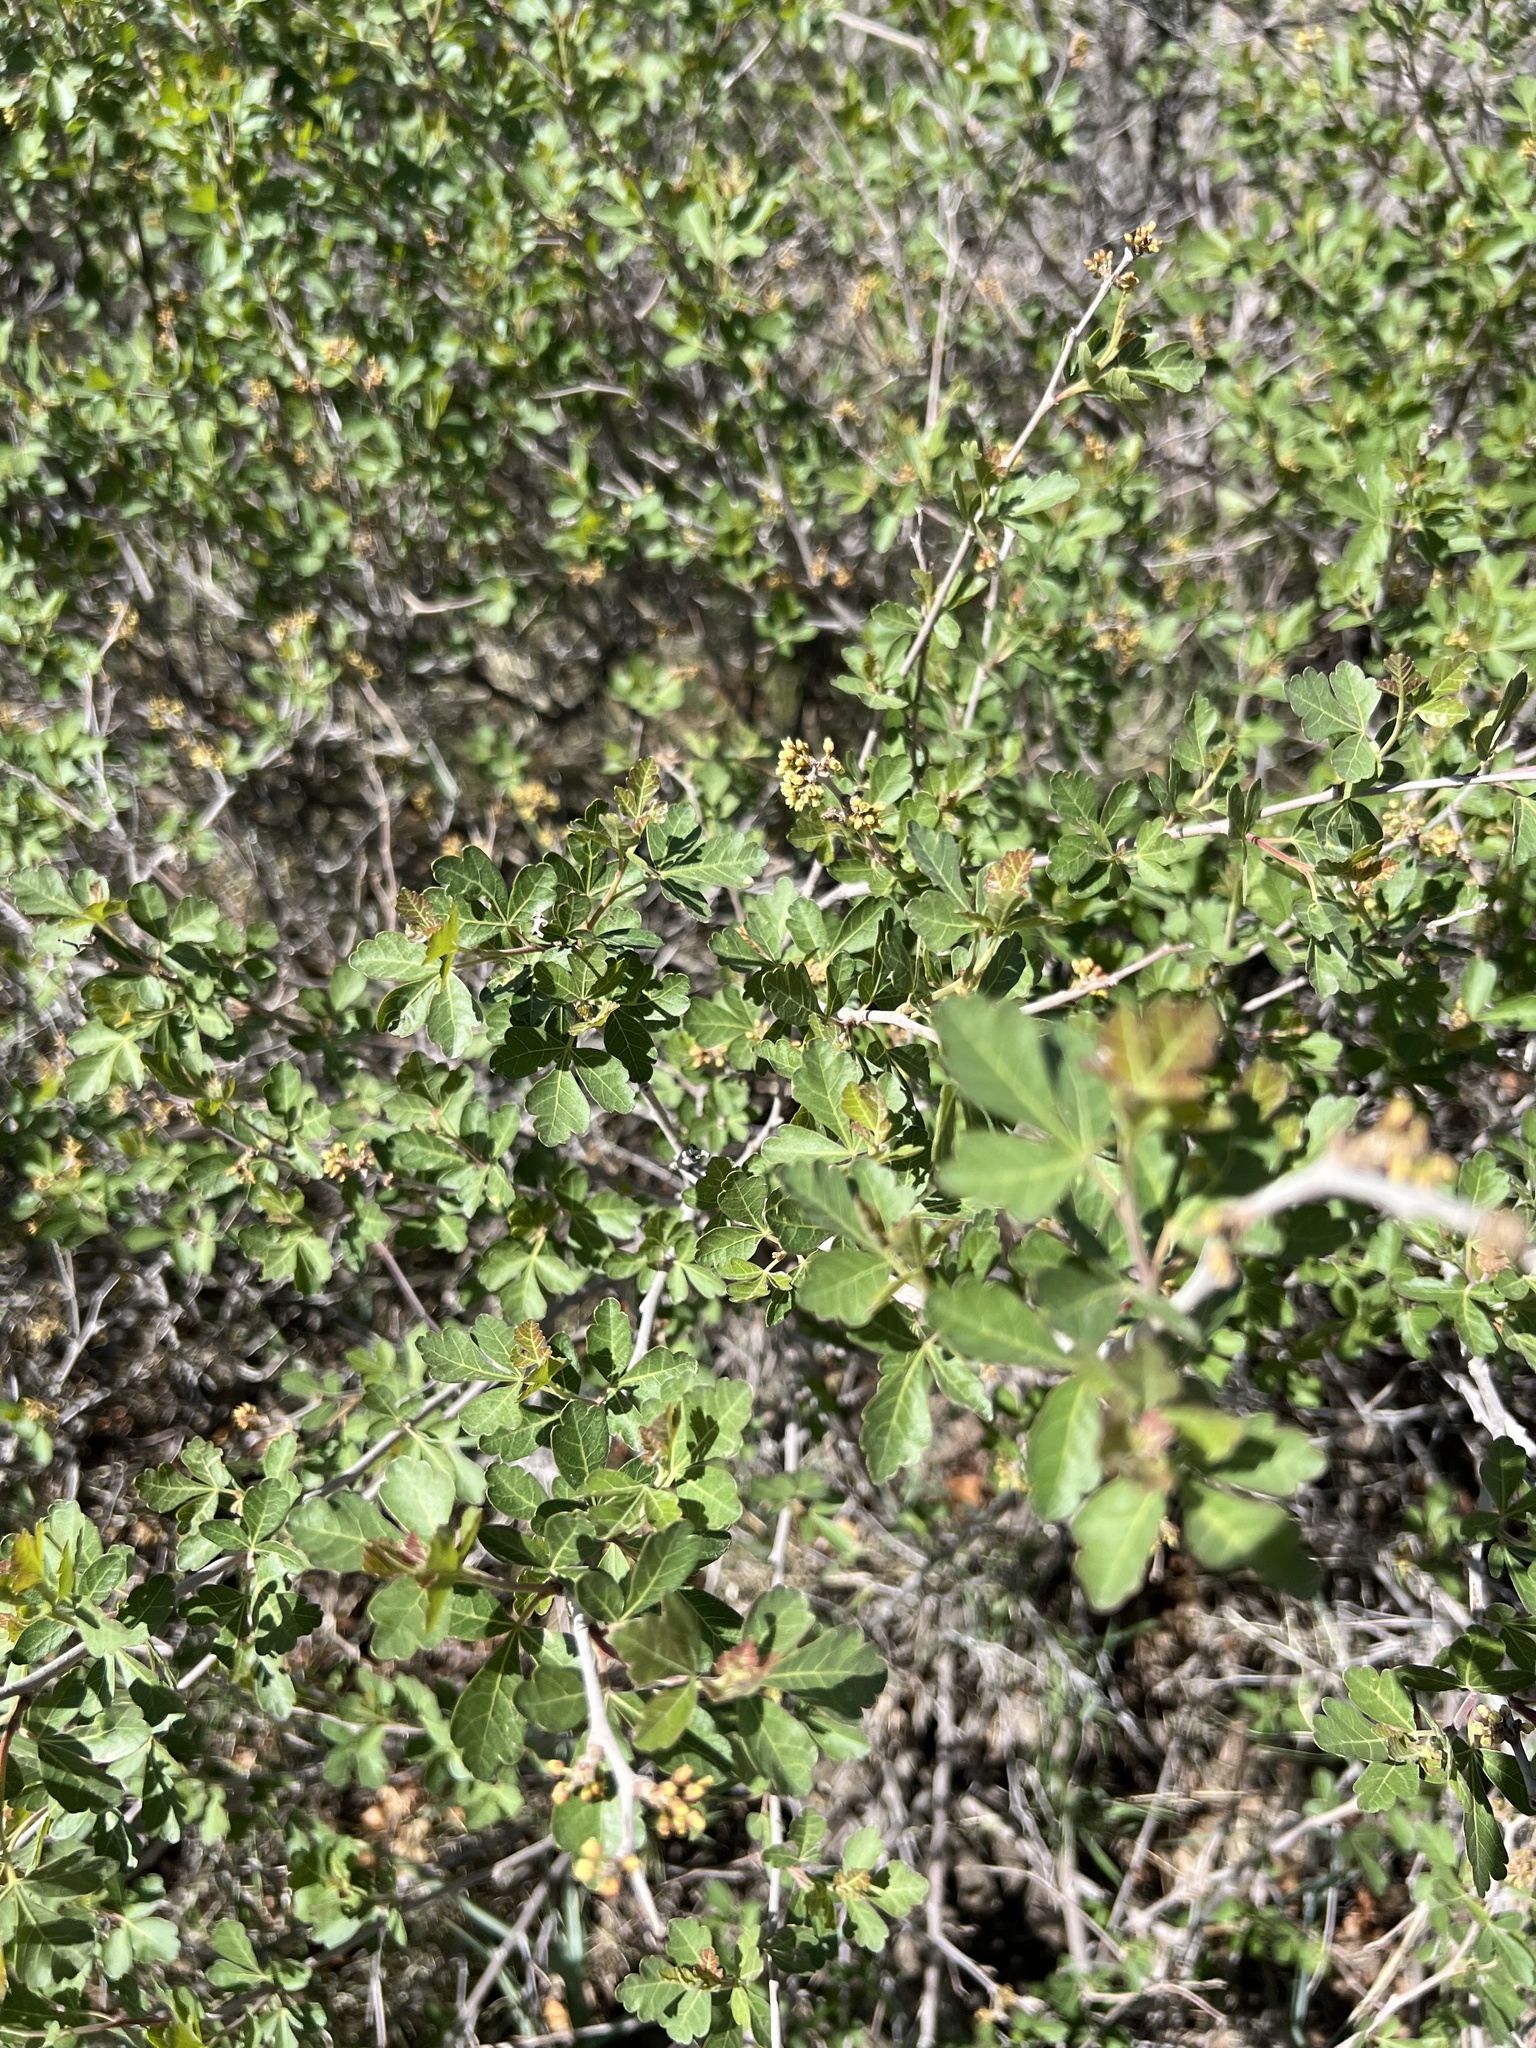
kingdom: Plantae
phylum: Tracheophyta
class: Magnoliopsida
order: Sapindales
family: Anacardiaceae
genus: Rhus
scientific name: Rhus trilobata
